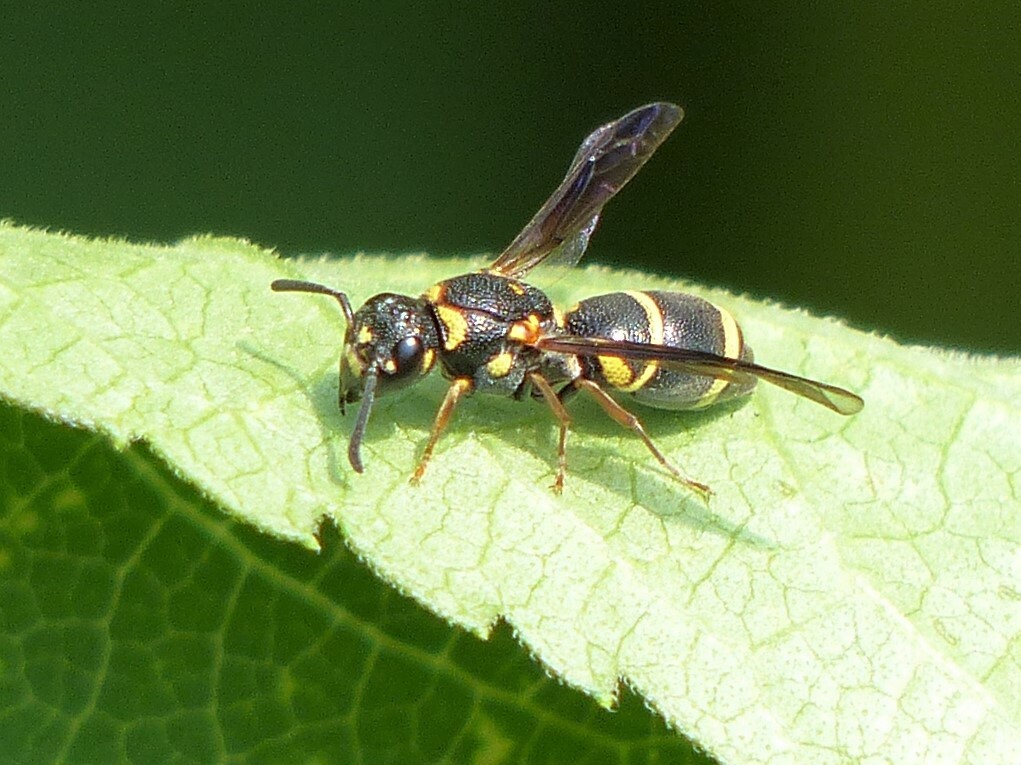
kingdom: Animalia
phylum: Arthropoda
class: Insecta
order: Hymenoptera
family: Eumenidae
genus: Parancistrocerus
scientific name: Parancistrocerus fulvipes
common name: Potter wasp
